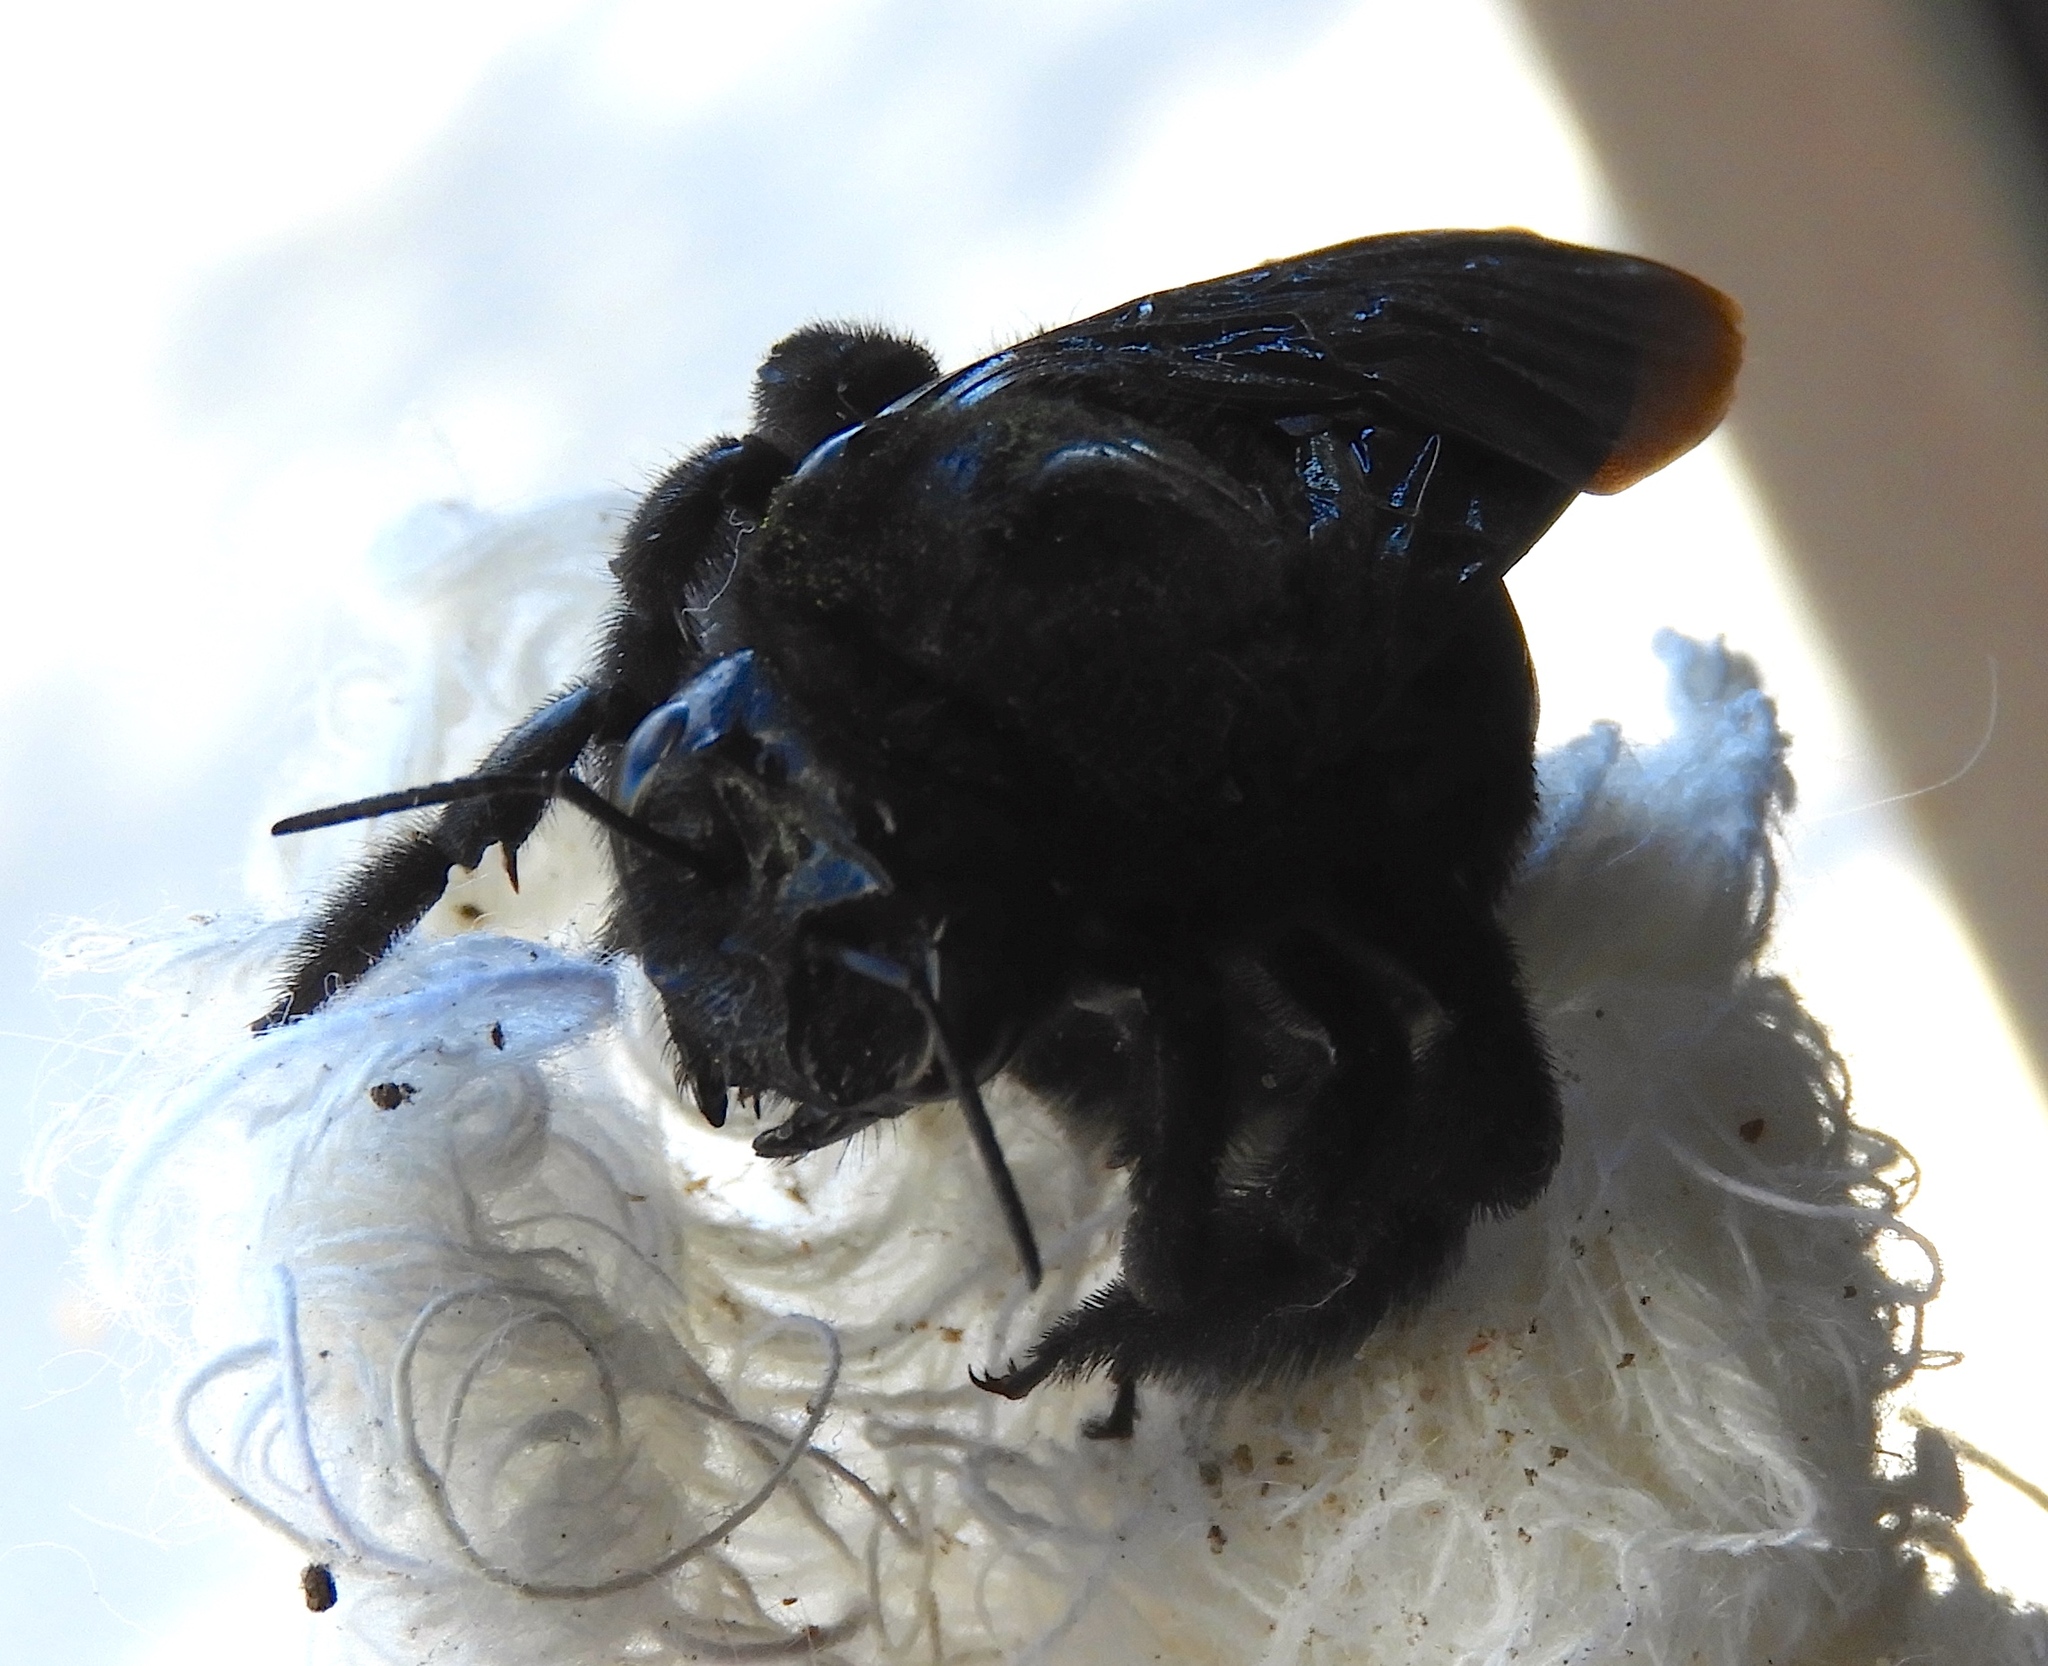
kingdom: Animalia
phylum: Arthropoda
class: Insecta
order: Hymenoptera
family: Apidae
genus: Xylocopa
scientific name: Xylocopa fimbriata
